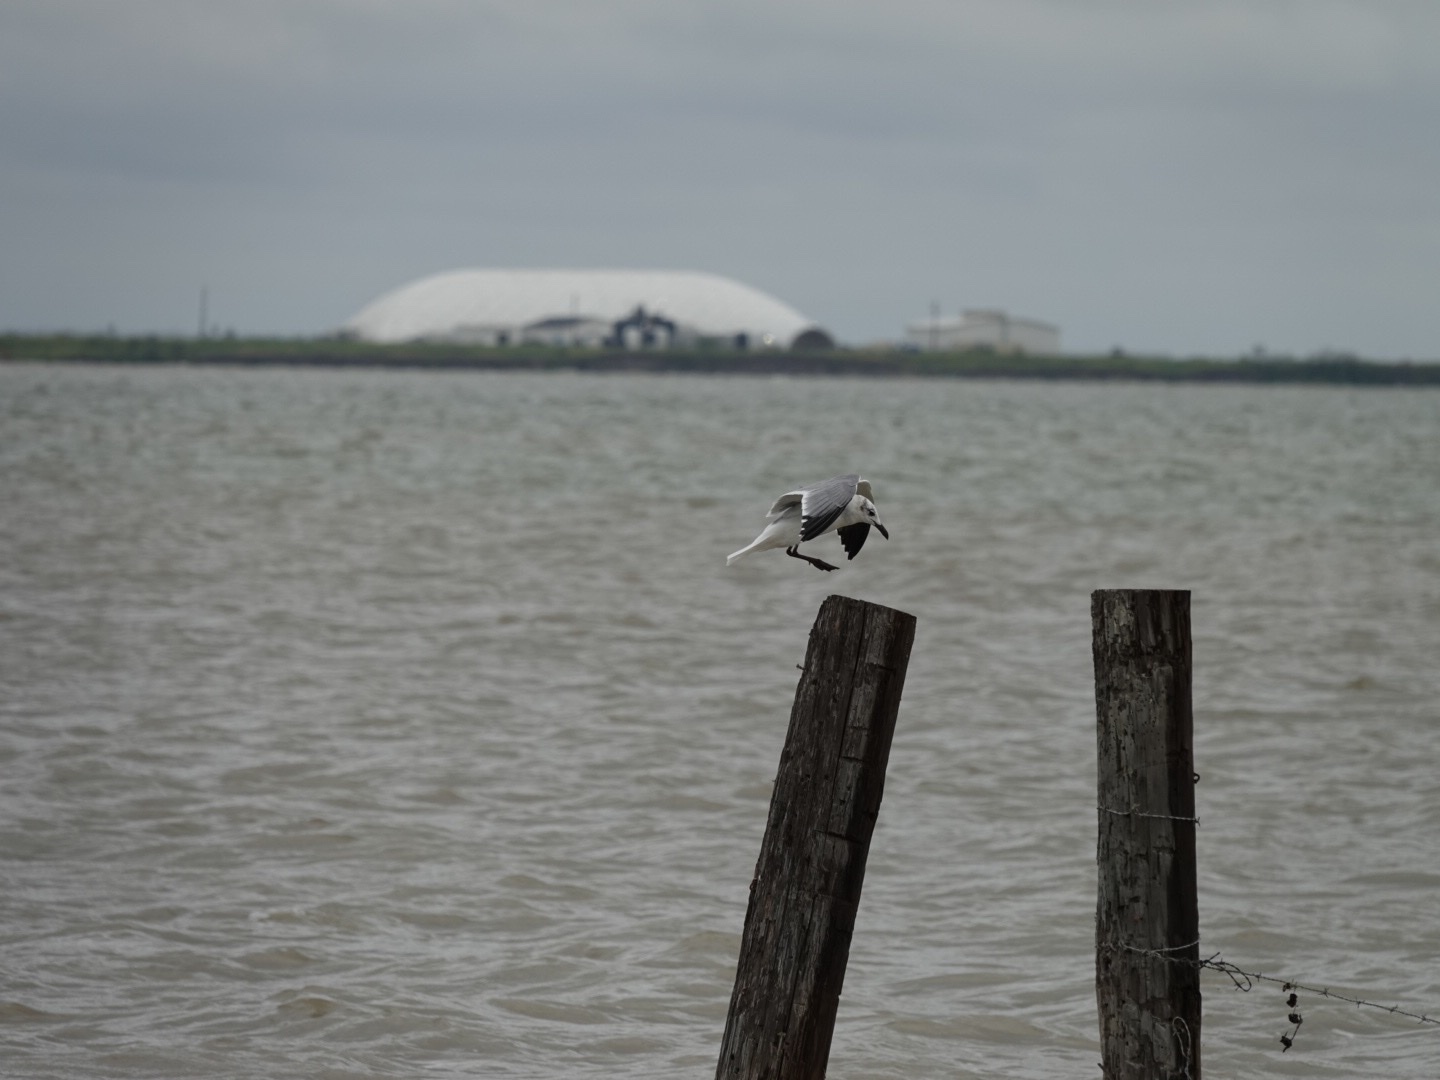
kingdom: Animalia
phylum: Chordata
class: Aves
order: Charadriiformes
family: Laridae
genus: Leucophaeus
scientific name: Leucophaeus atricilla
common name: Laughing gull
